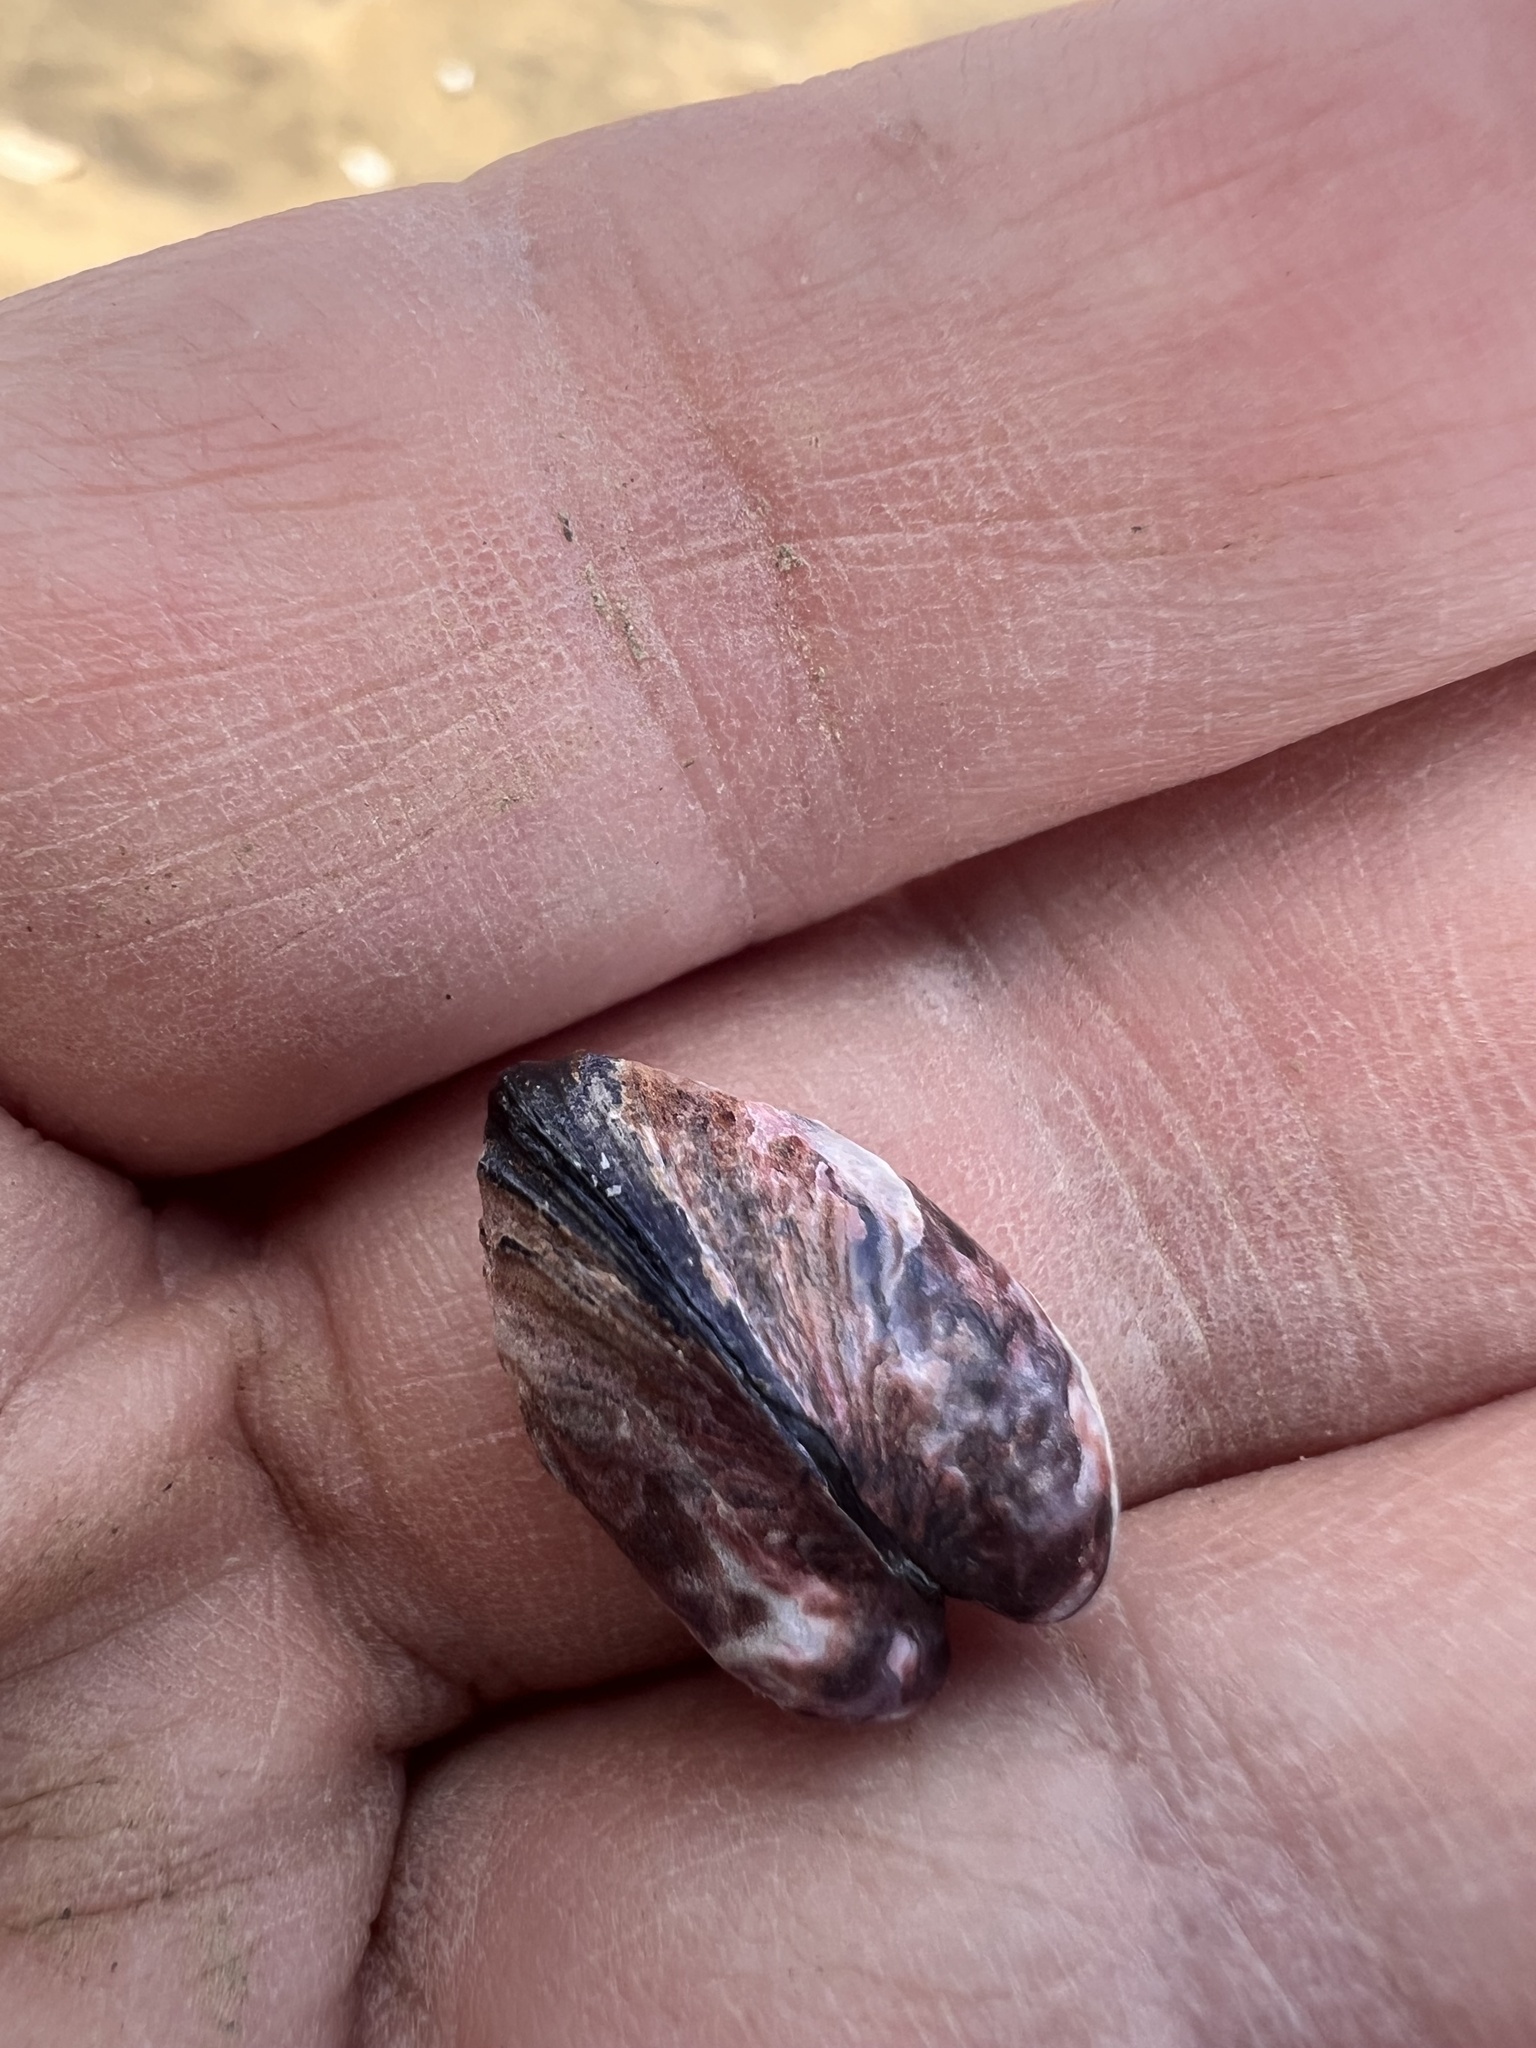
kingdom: Animalia
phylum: Mollusca
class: Bivalvia
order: Mytilida
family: Mytilidae
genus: Xenostrobus
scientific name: Xenostrobus neozelanicus
